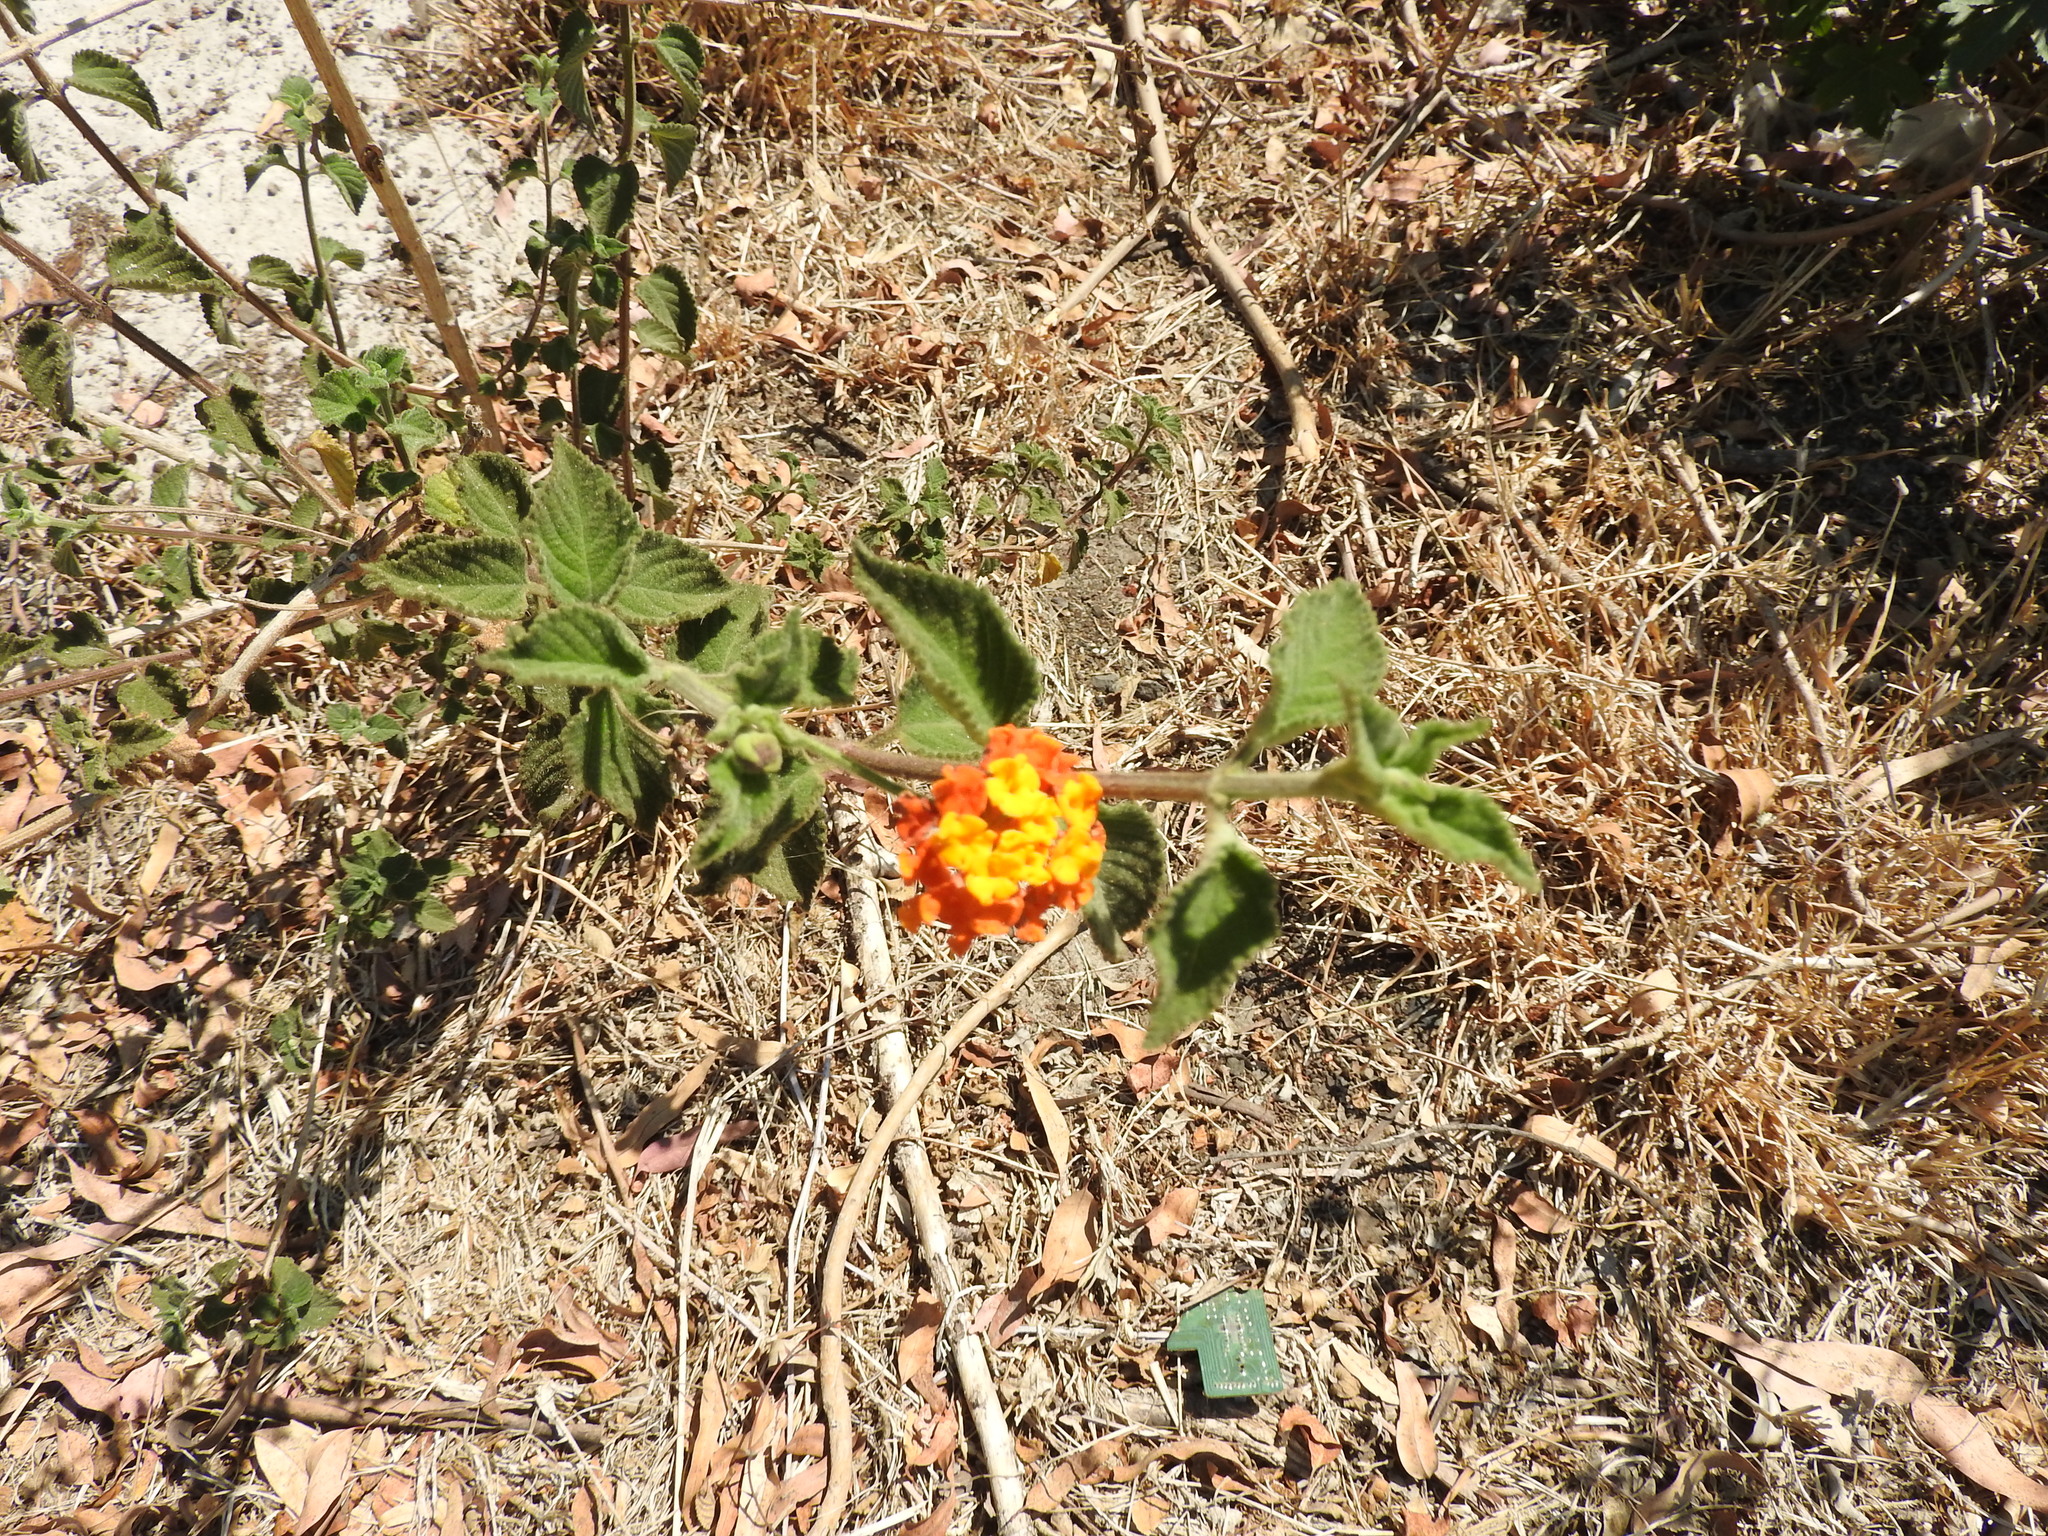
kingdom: Plantae
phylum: Tracheophyta
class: Magnoliopsida
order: Lamiales
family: Verbenaceae
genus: Lantana
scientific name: Lantana camara
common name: Lantana
